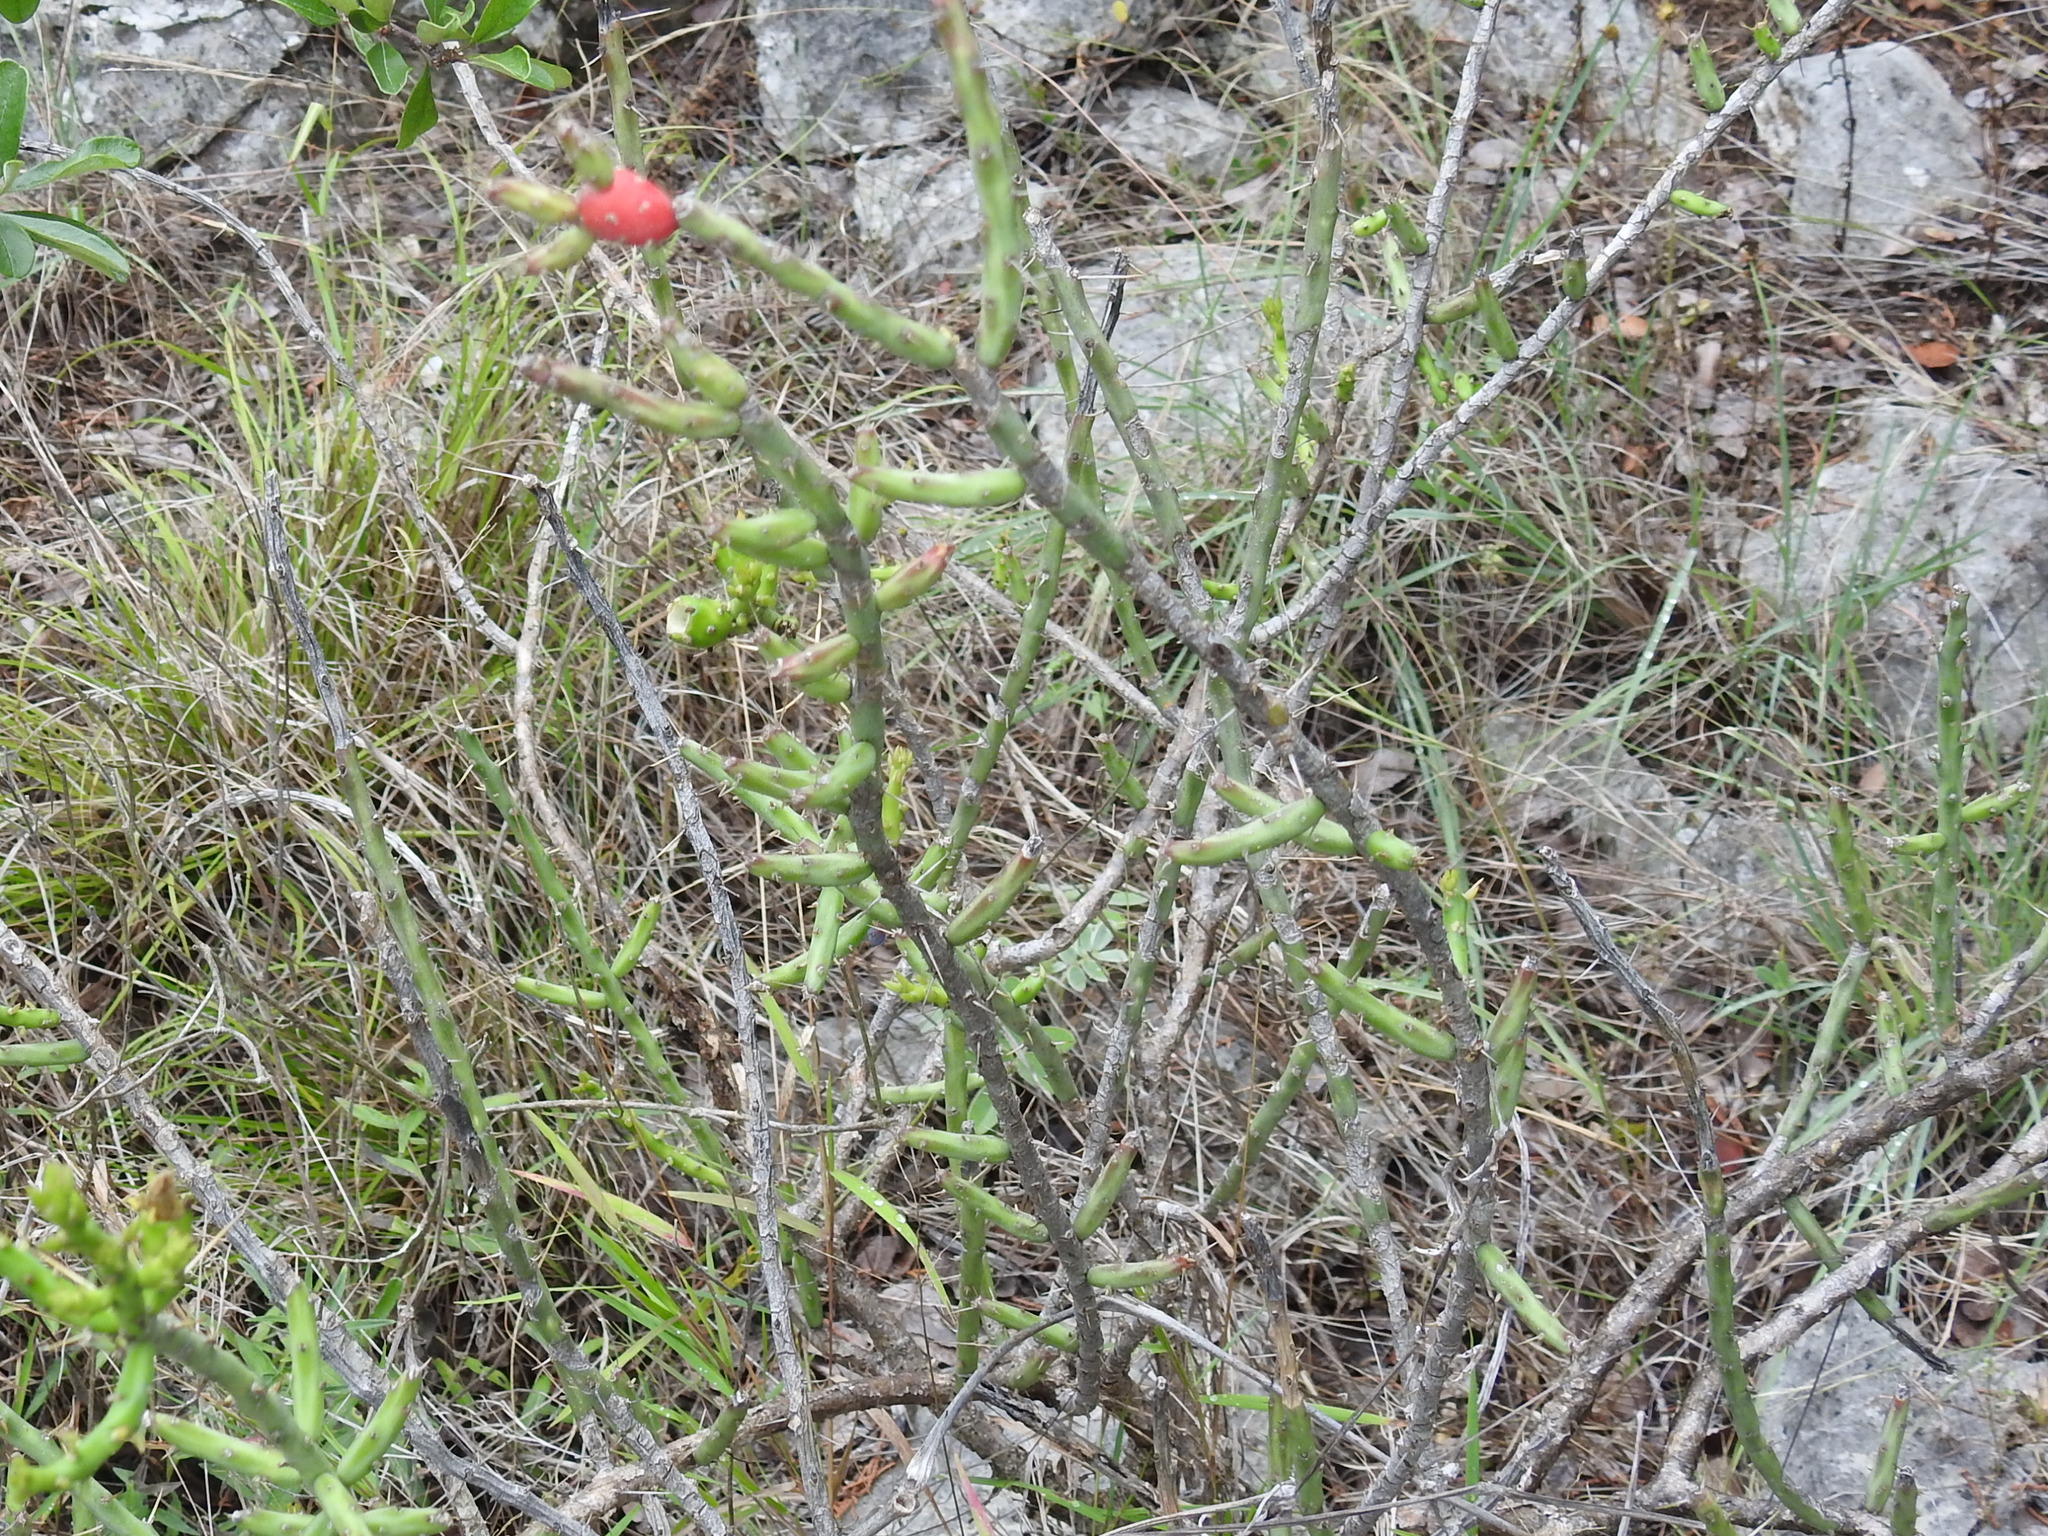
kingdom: Plantae
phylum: Tracheophyta
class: Magnoliopsida
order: Caryophyllales
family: Cactaceae
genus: Cylindropuntia
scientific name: Cylindropuntia leptocaulis
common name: Christmas cactus
